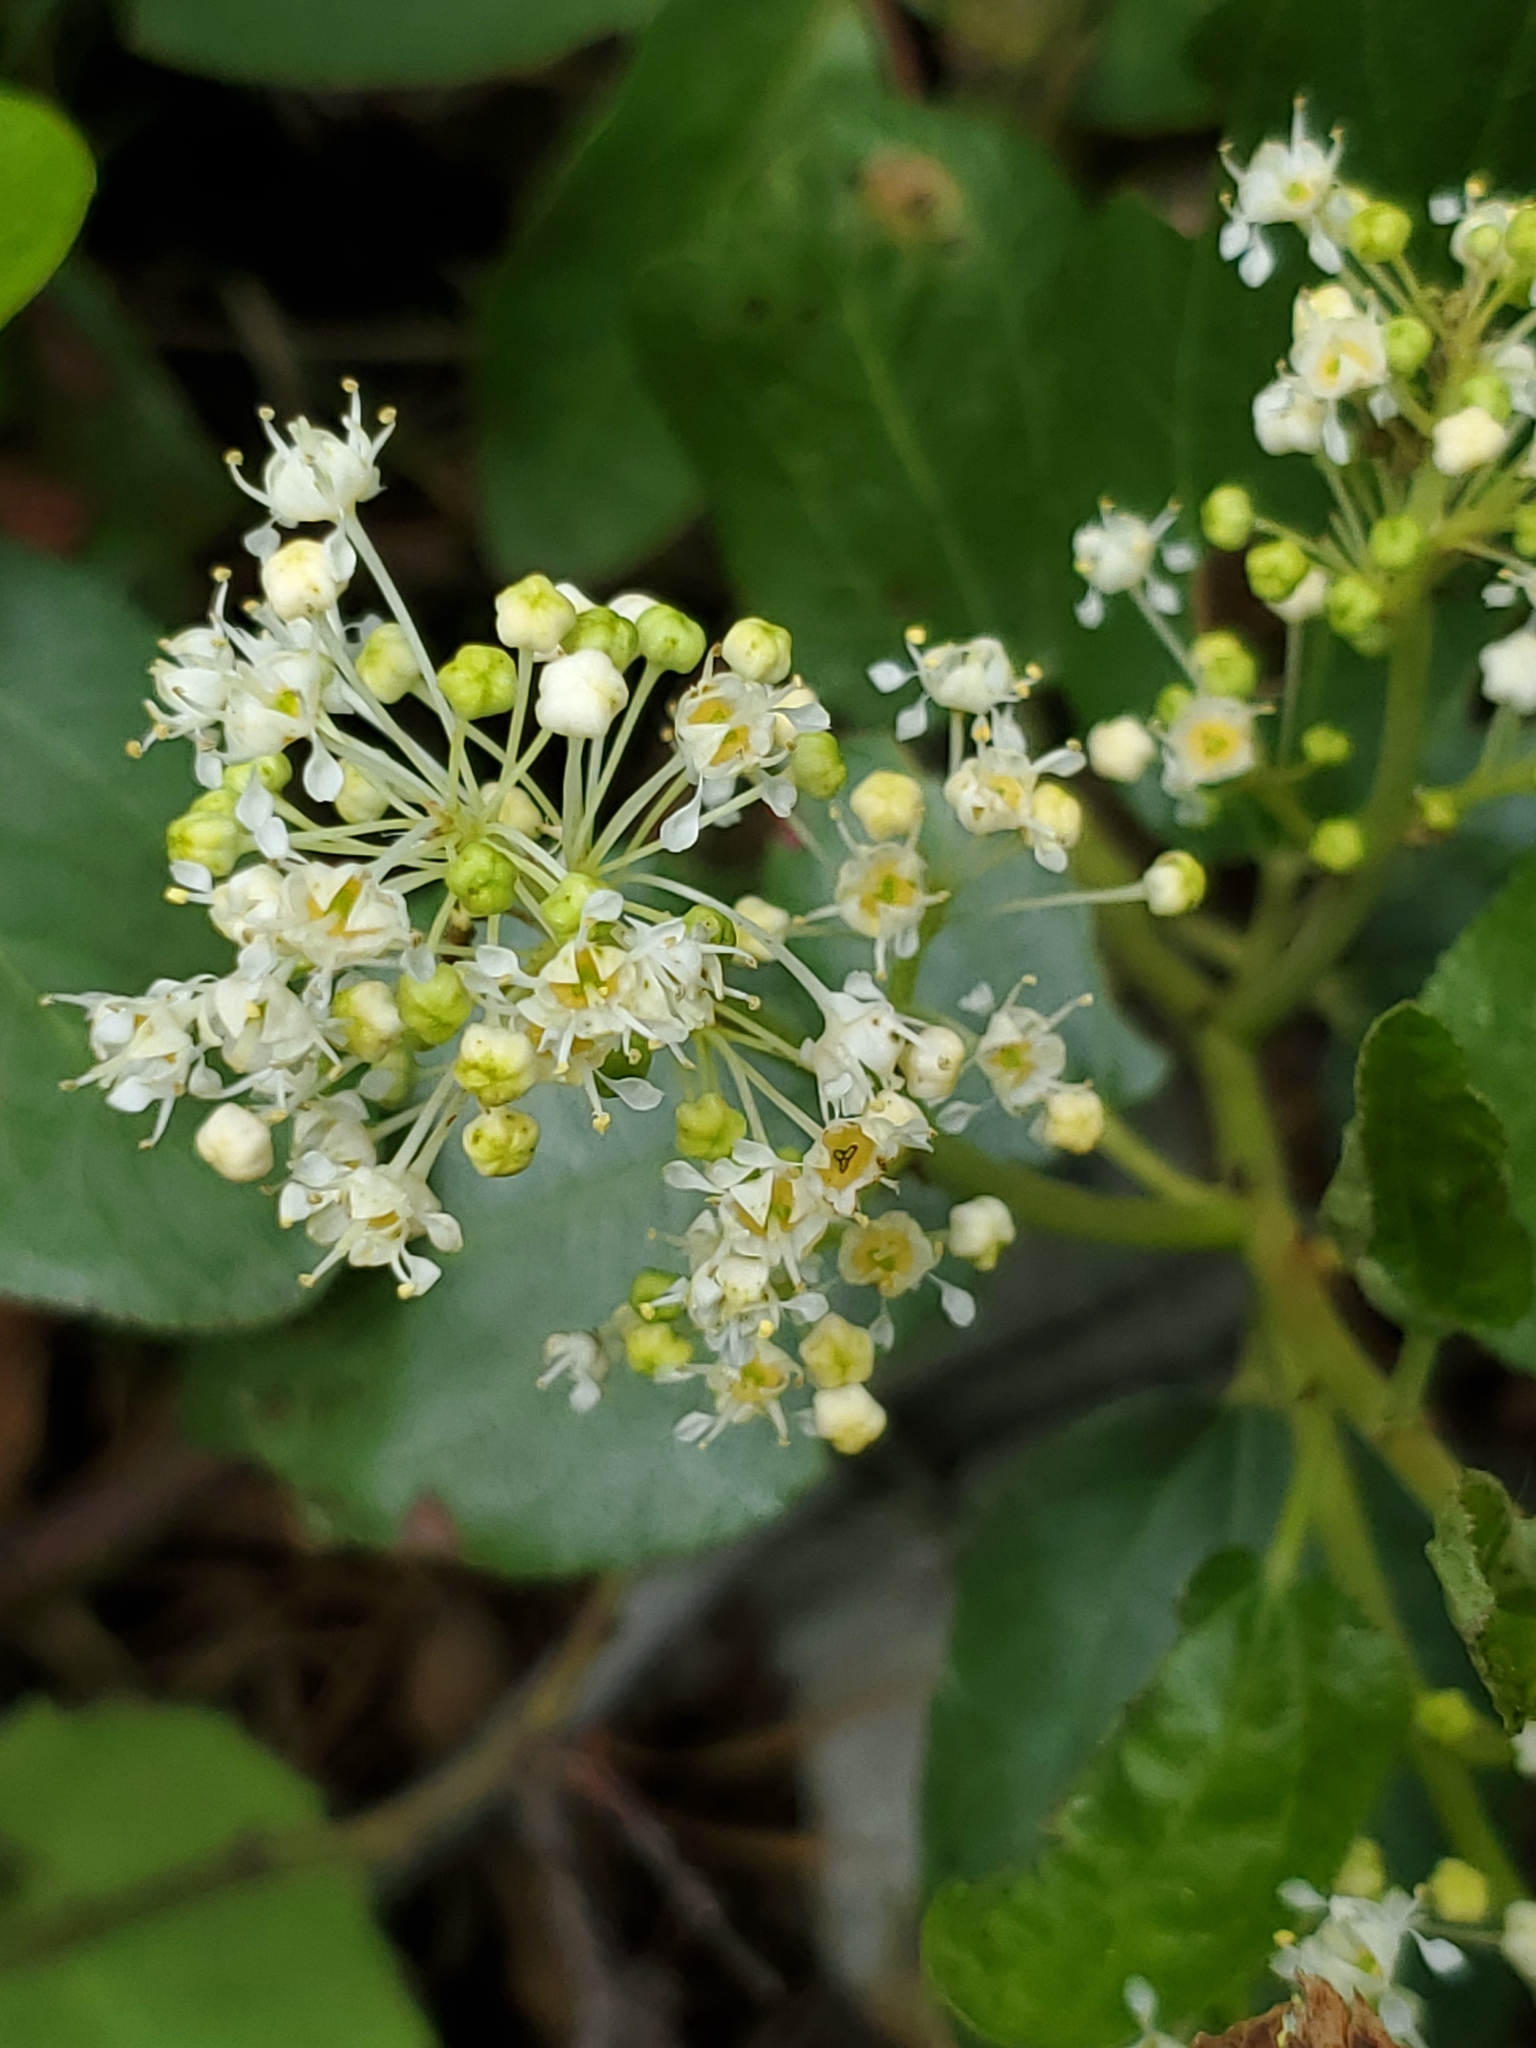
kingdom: Plantae
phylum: Tracheophyta
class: Magnoliopsida
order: Rosales
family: Rhamnaceae
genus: Ceanothus
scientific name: Ceanothus velutinus
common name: Snowbrush
